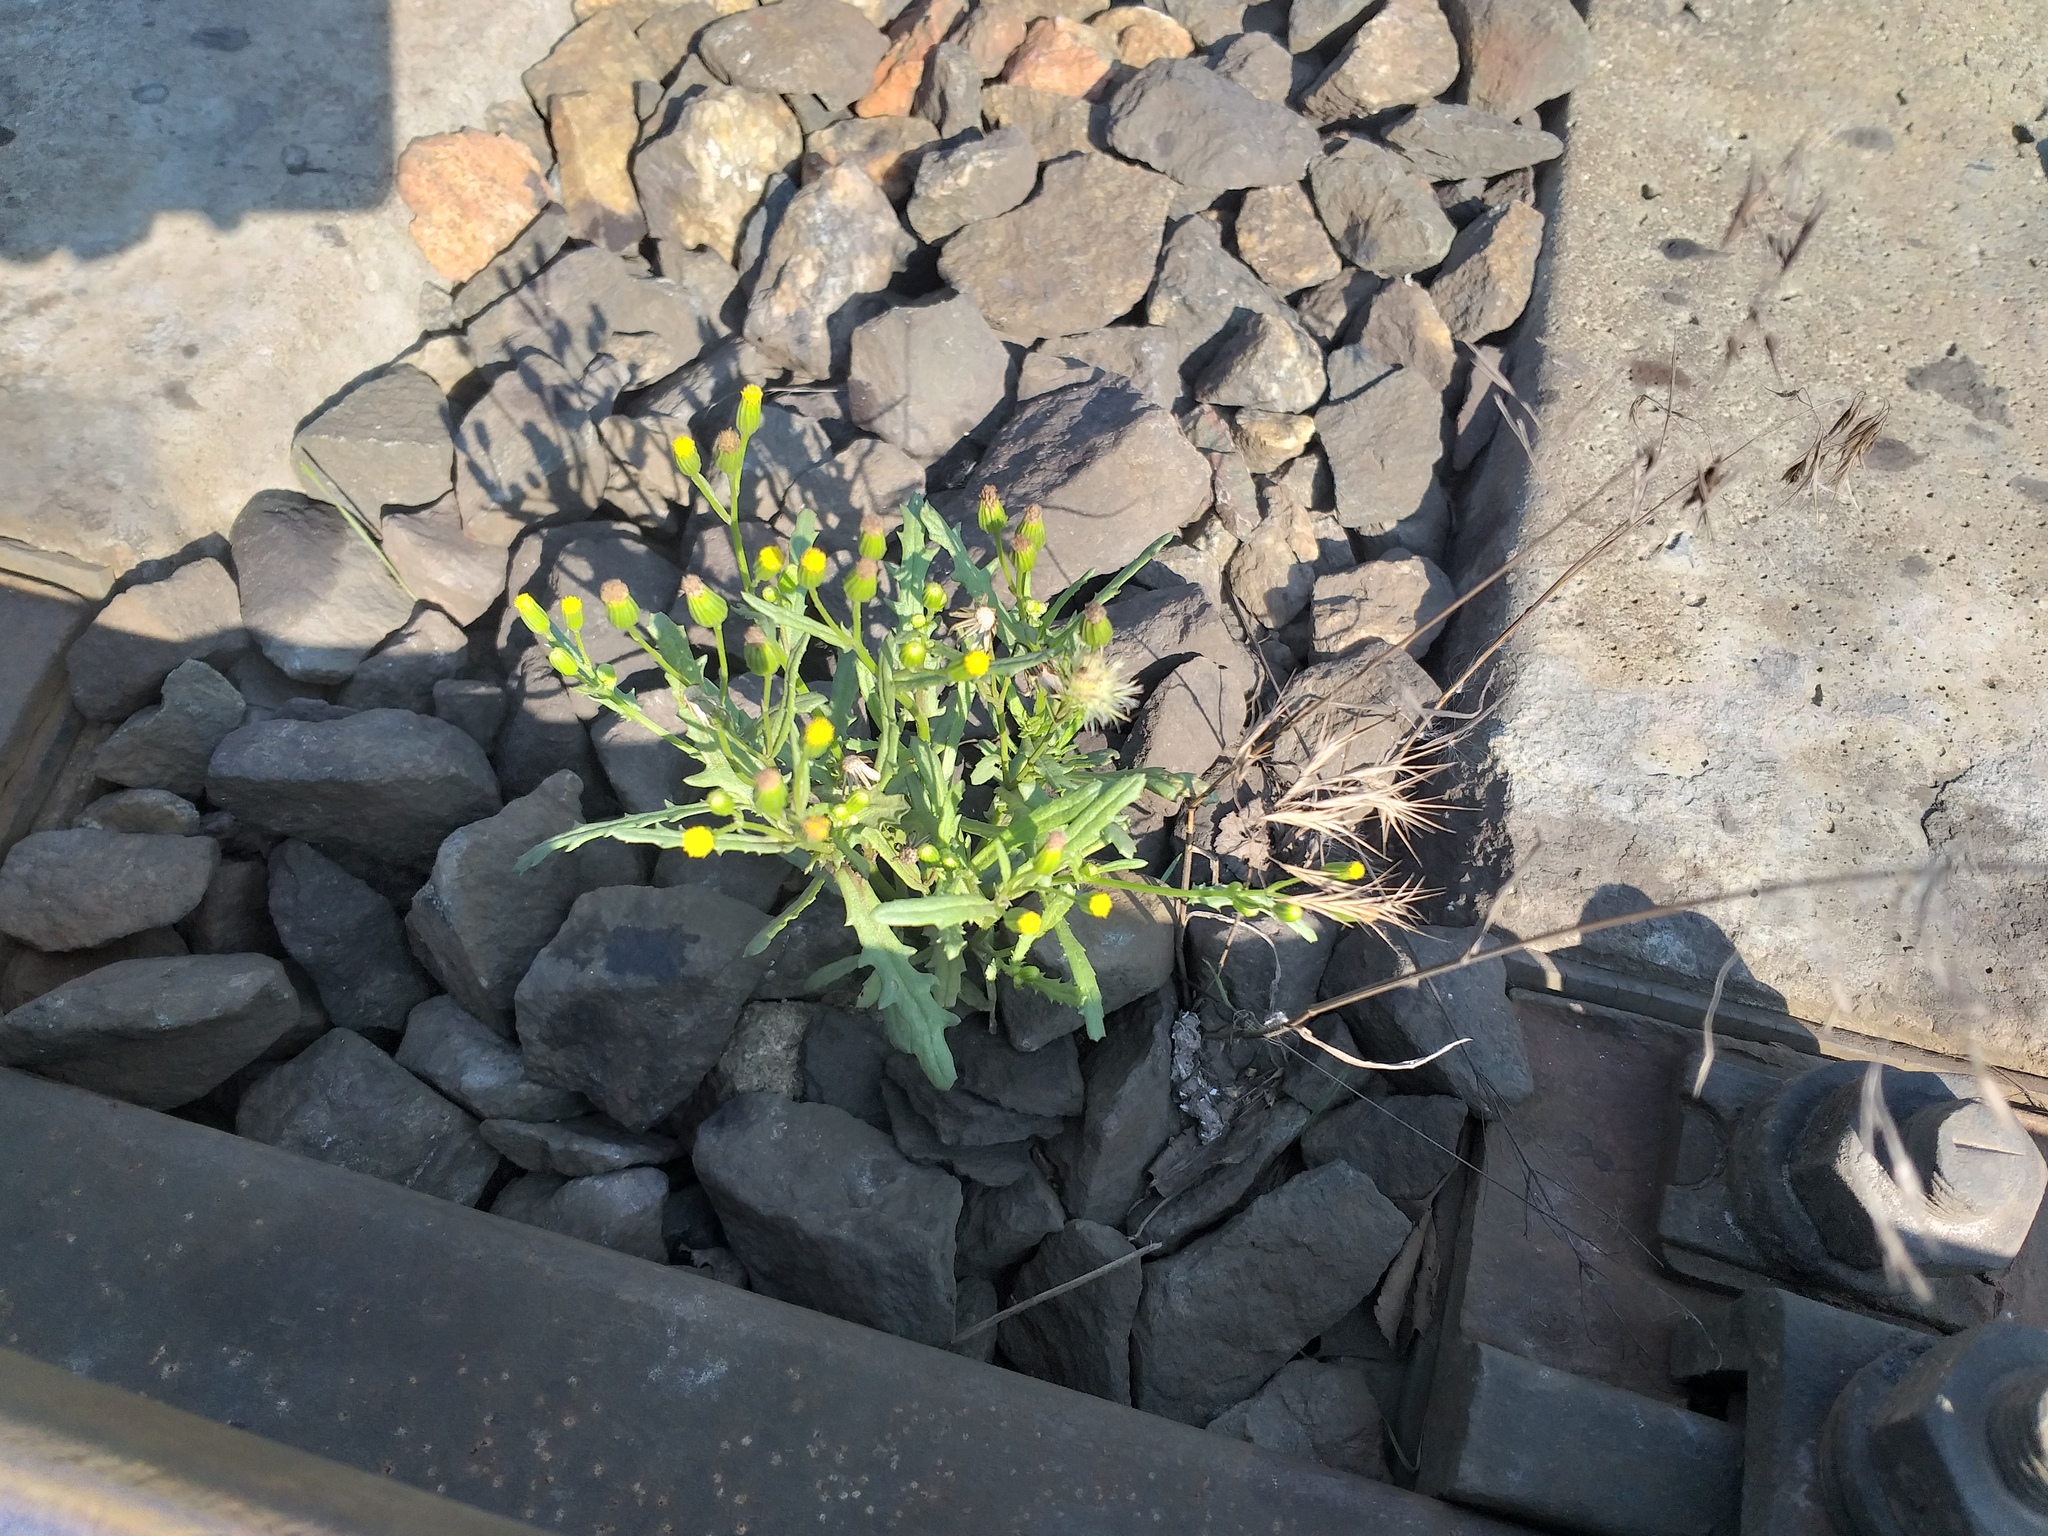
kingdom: Plantae
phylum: Tracheophyta
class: Magnoliopsida
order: Asterales
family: Asteraceae
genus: Senecio
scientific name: Senecio dubitabilis
